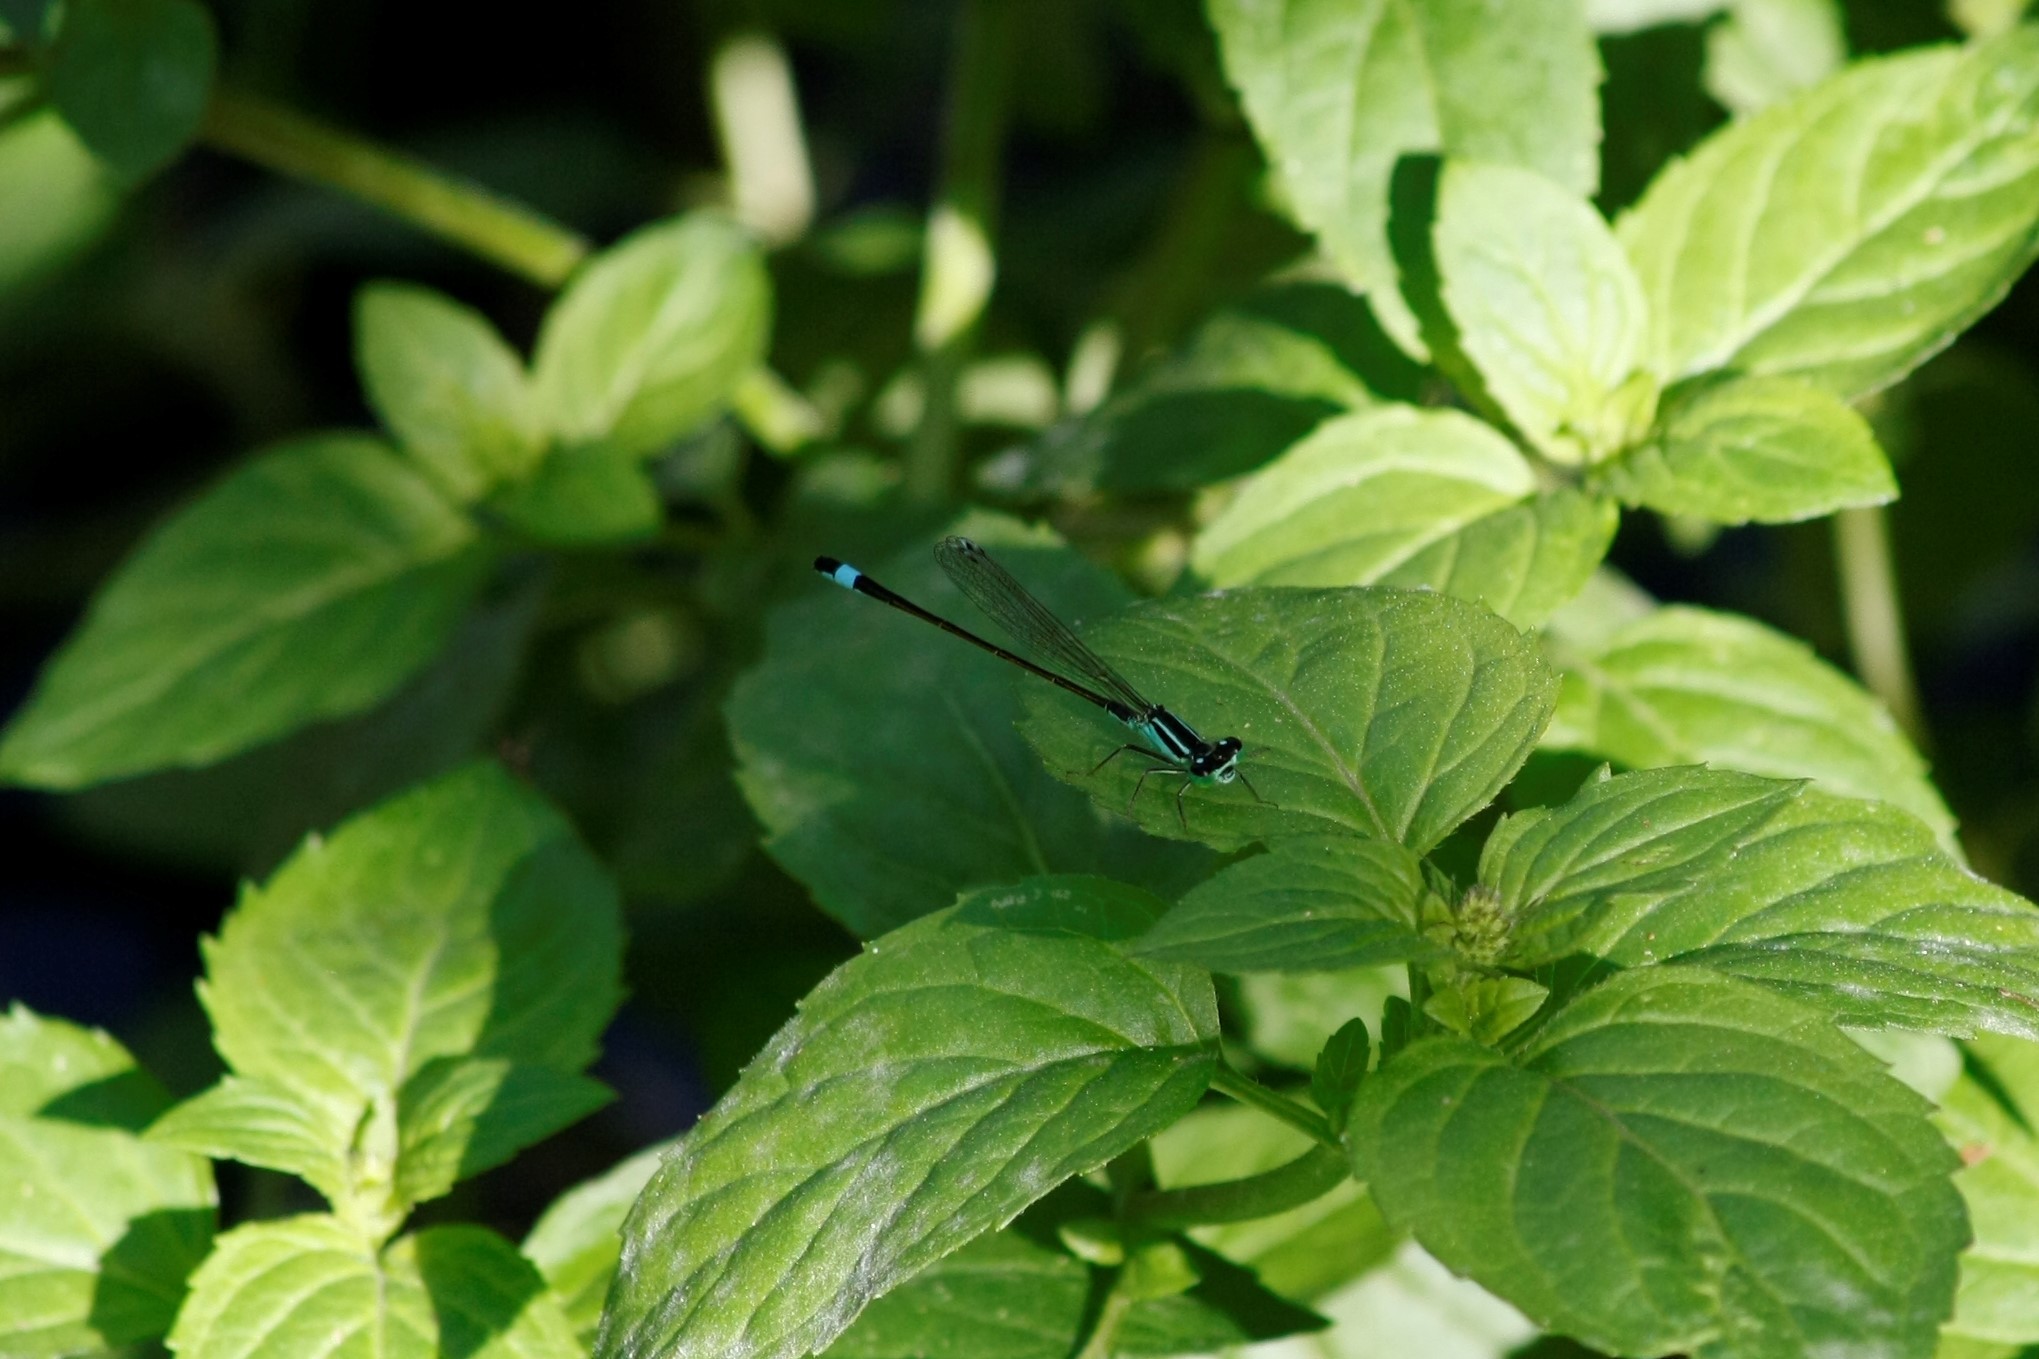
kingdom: Animalia
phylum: Arthropoda
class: Insecta
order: Odonata
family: Coenagrionidae
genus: Ischnura
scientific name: Ischnura elegans
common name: Blue-tailed damselfly
